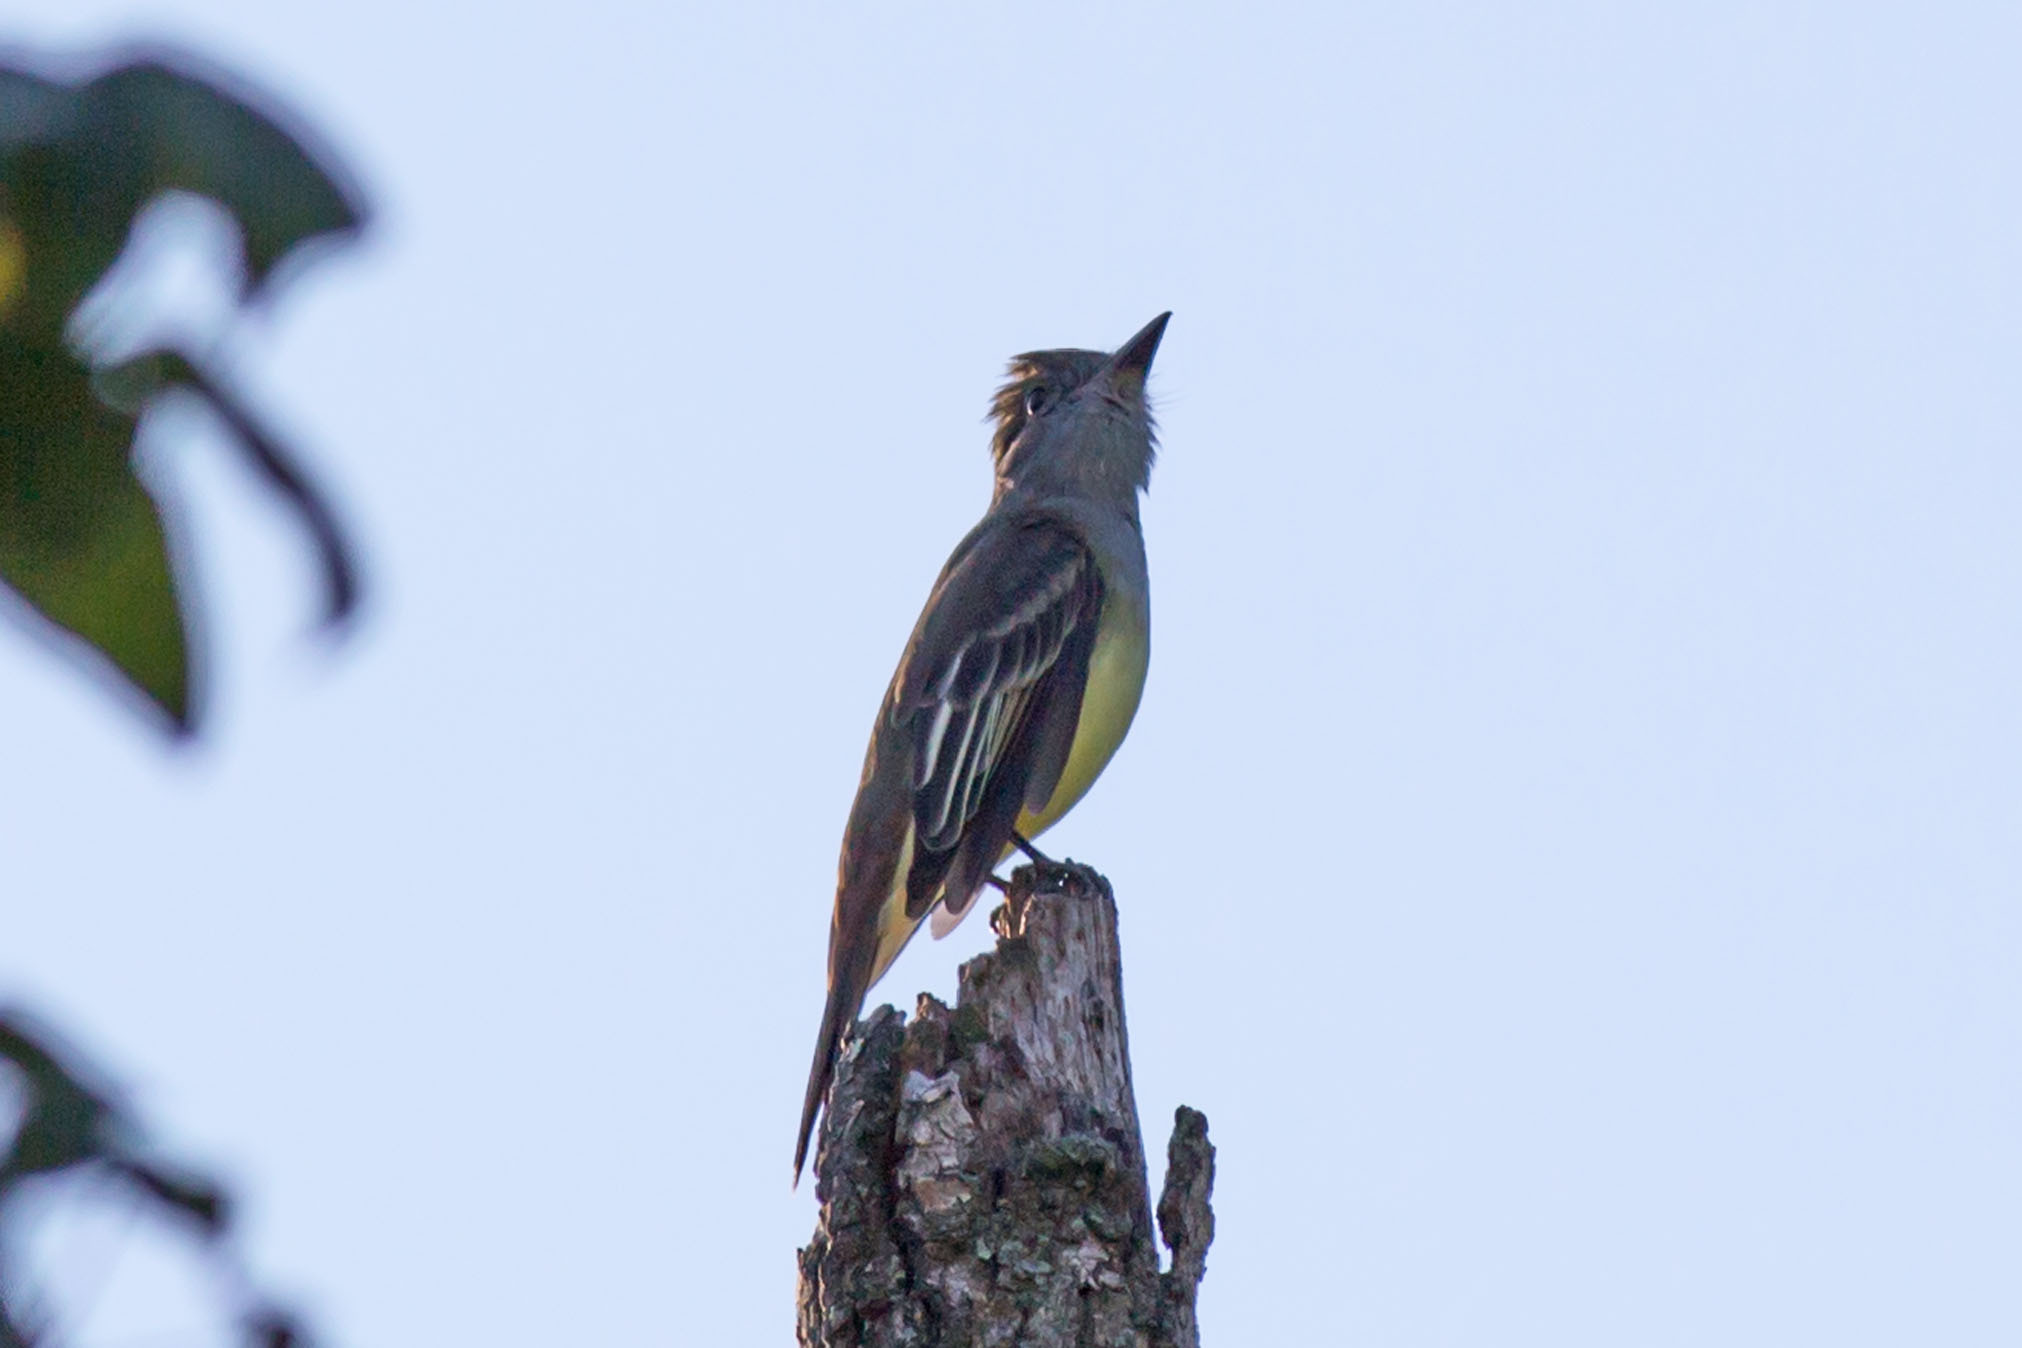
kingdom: Animalia
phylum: Chordata
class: Aves
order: Passeriformes
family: Tyrannidae
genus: Myiarchus
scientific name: Myiarchus crinitus
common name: Great crested flycatcher
